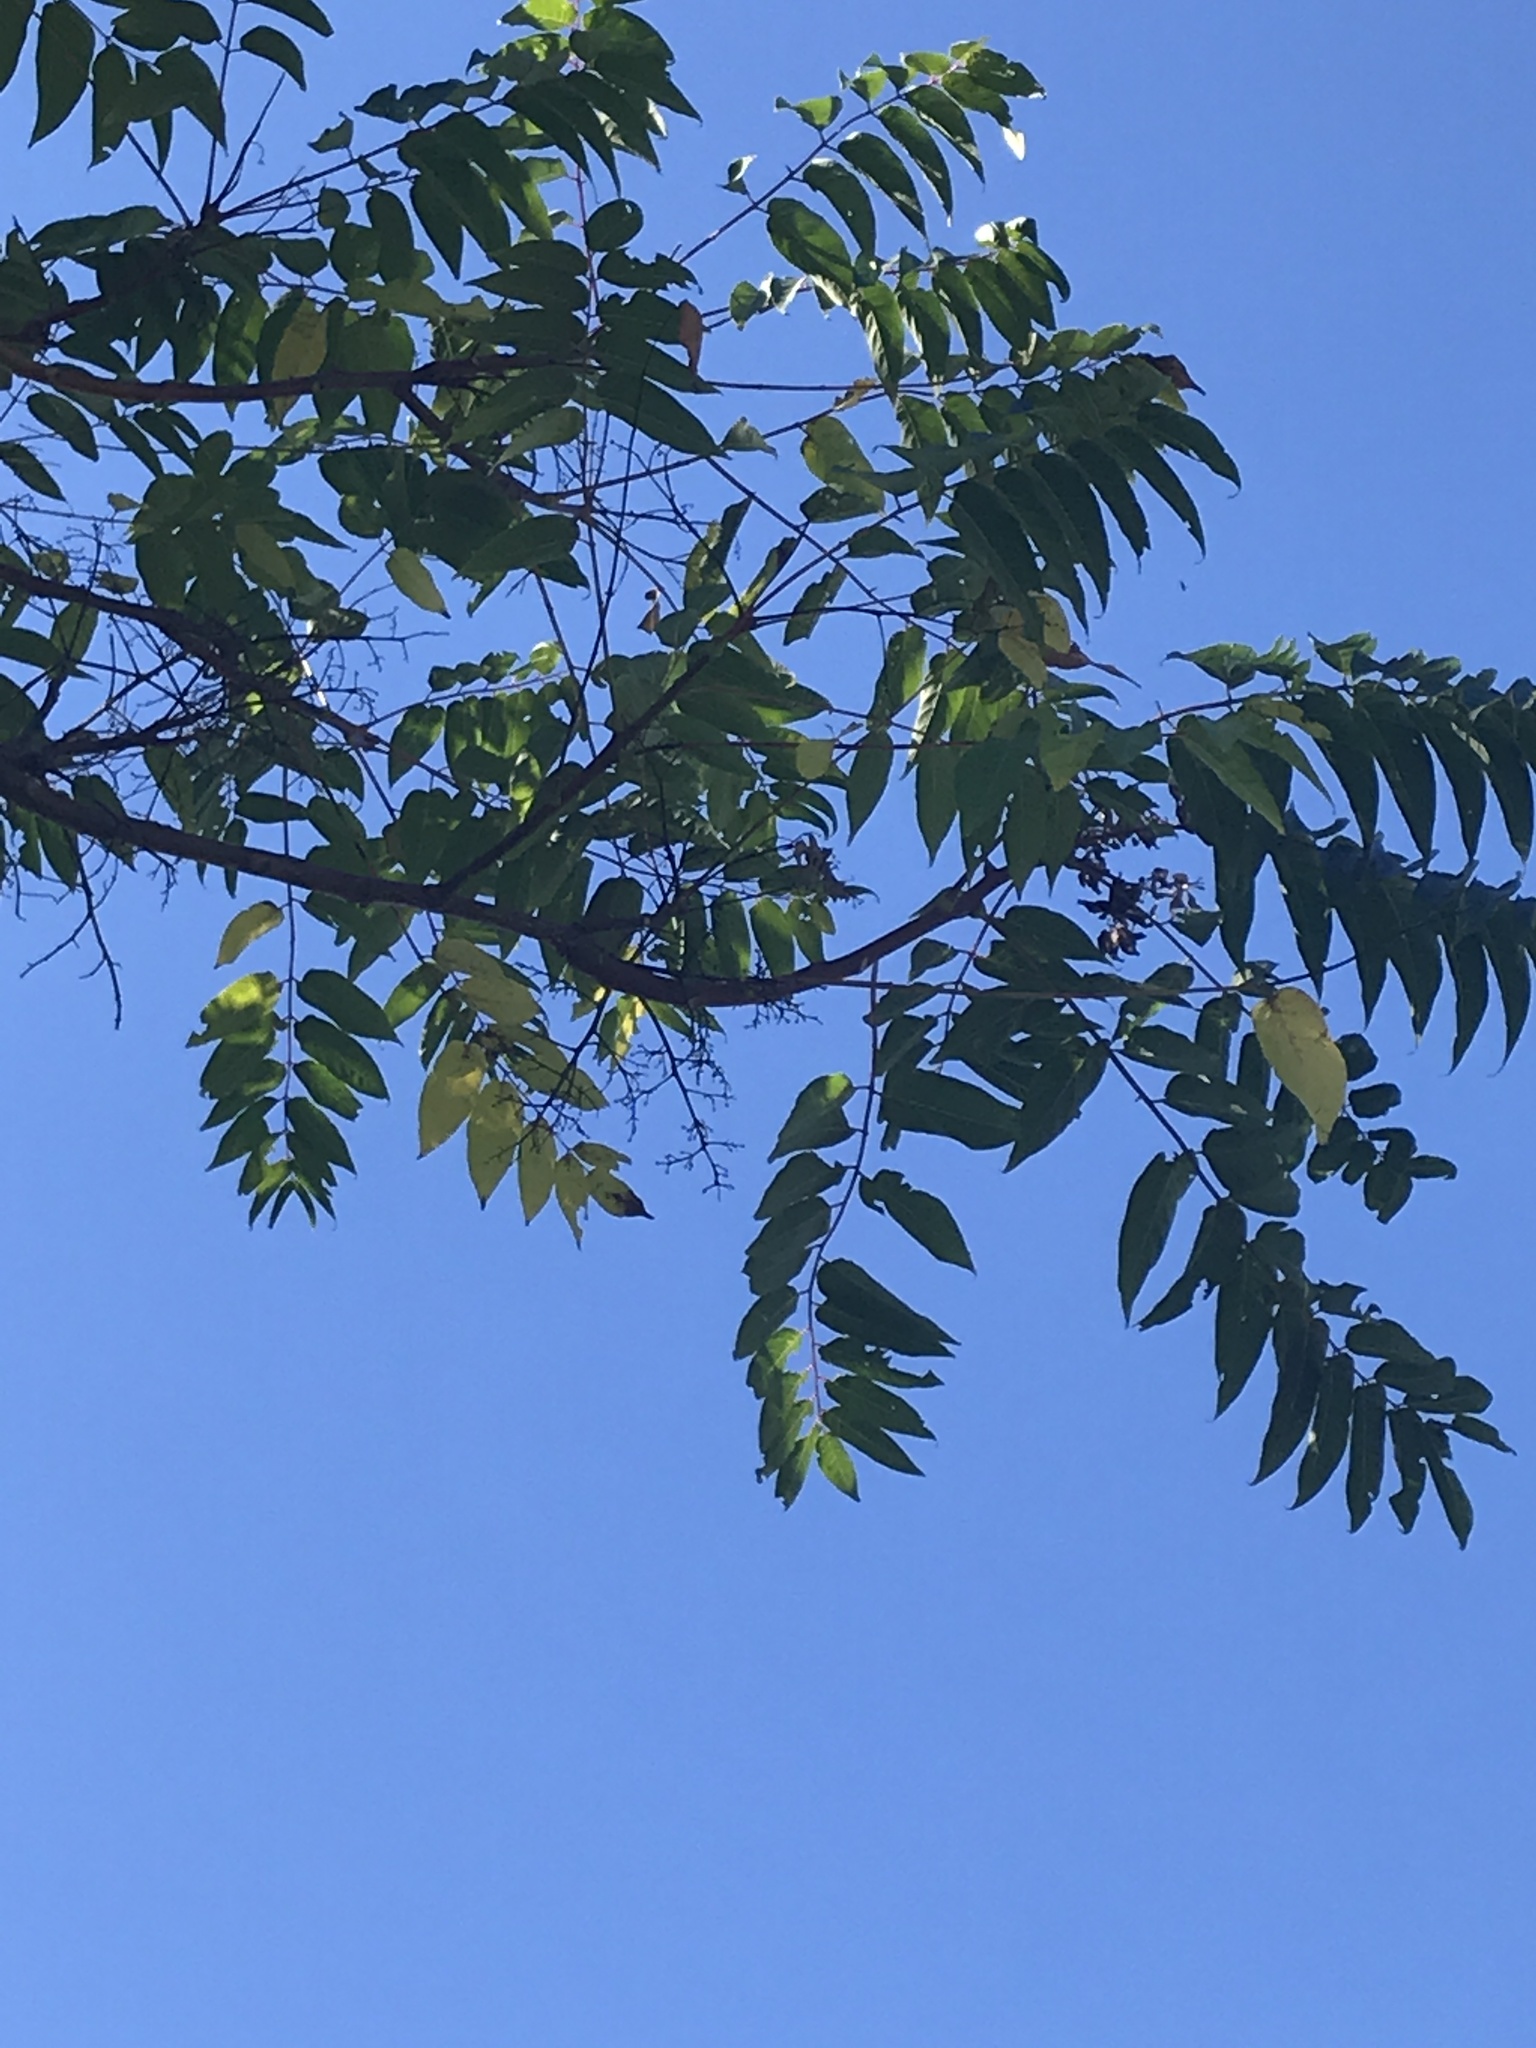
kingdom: Plantae
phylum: Tracheophyta
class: Magnoliopsida
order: Sapindales
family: Simaroubaceae
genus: Ailanthus
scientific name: Ailanthus altissima
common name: Tree-of-heaven
